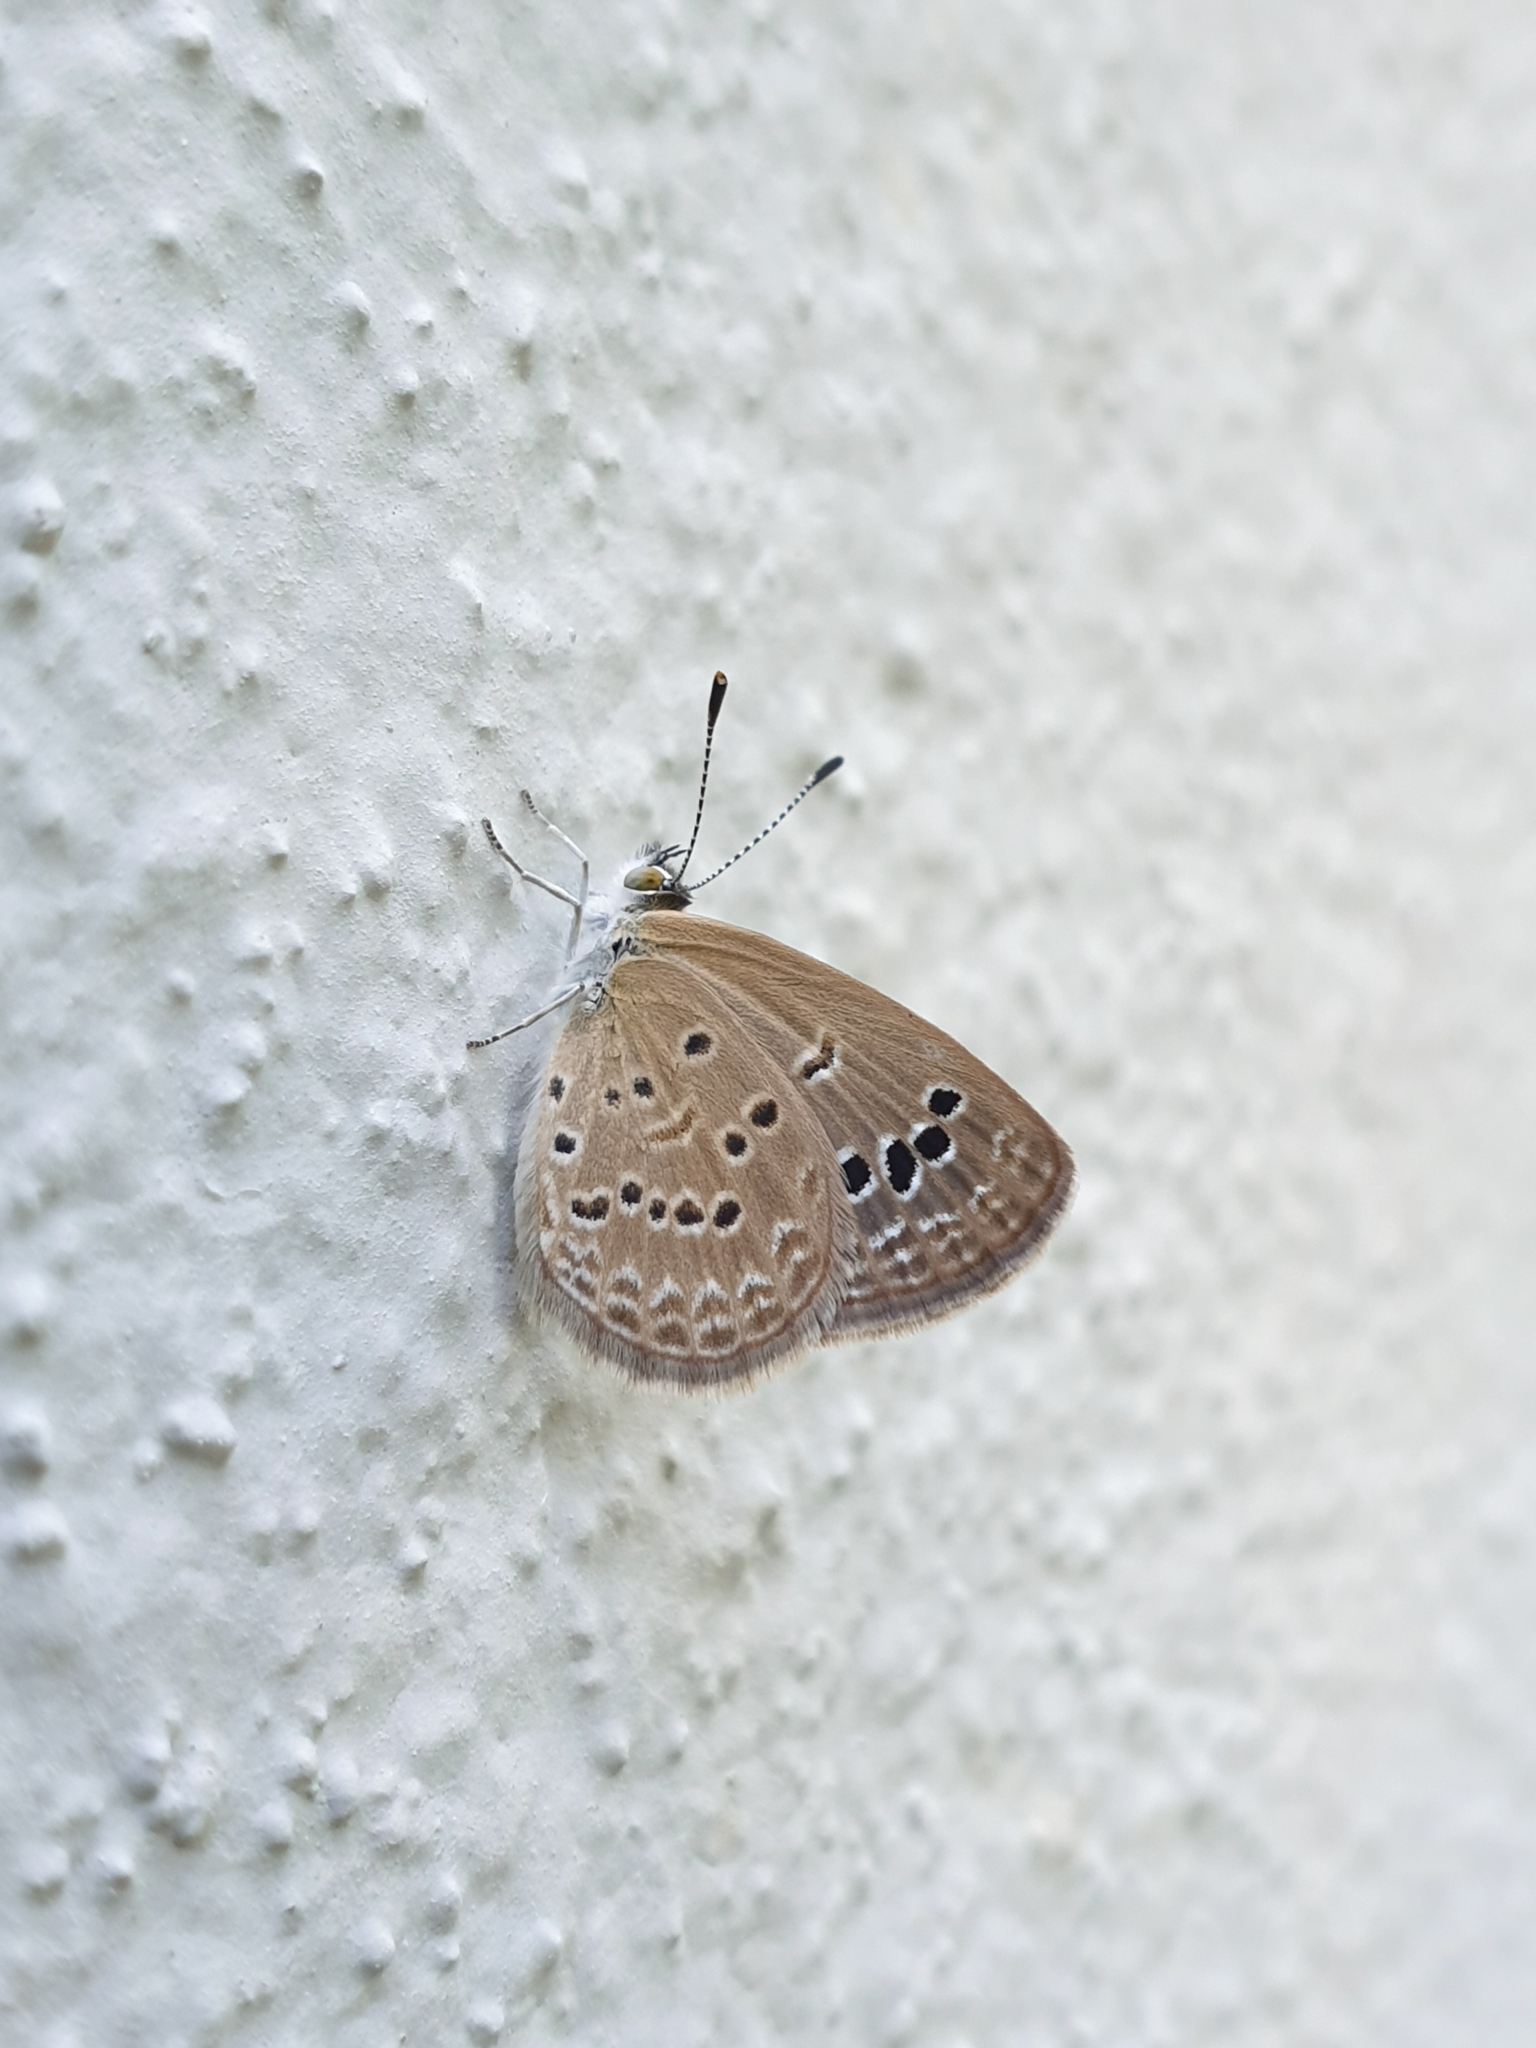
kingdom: Animalia
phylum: Arthropoda
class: Insecta
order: Lepidoptera
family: Lycaenidae
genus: Zizina
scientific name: Zizina otis
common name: Lesser grass blue
